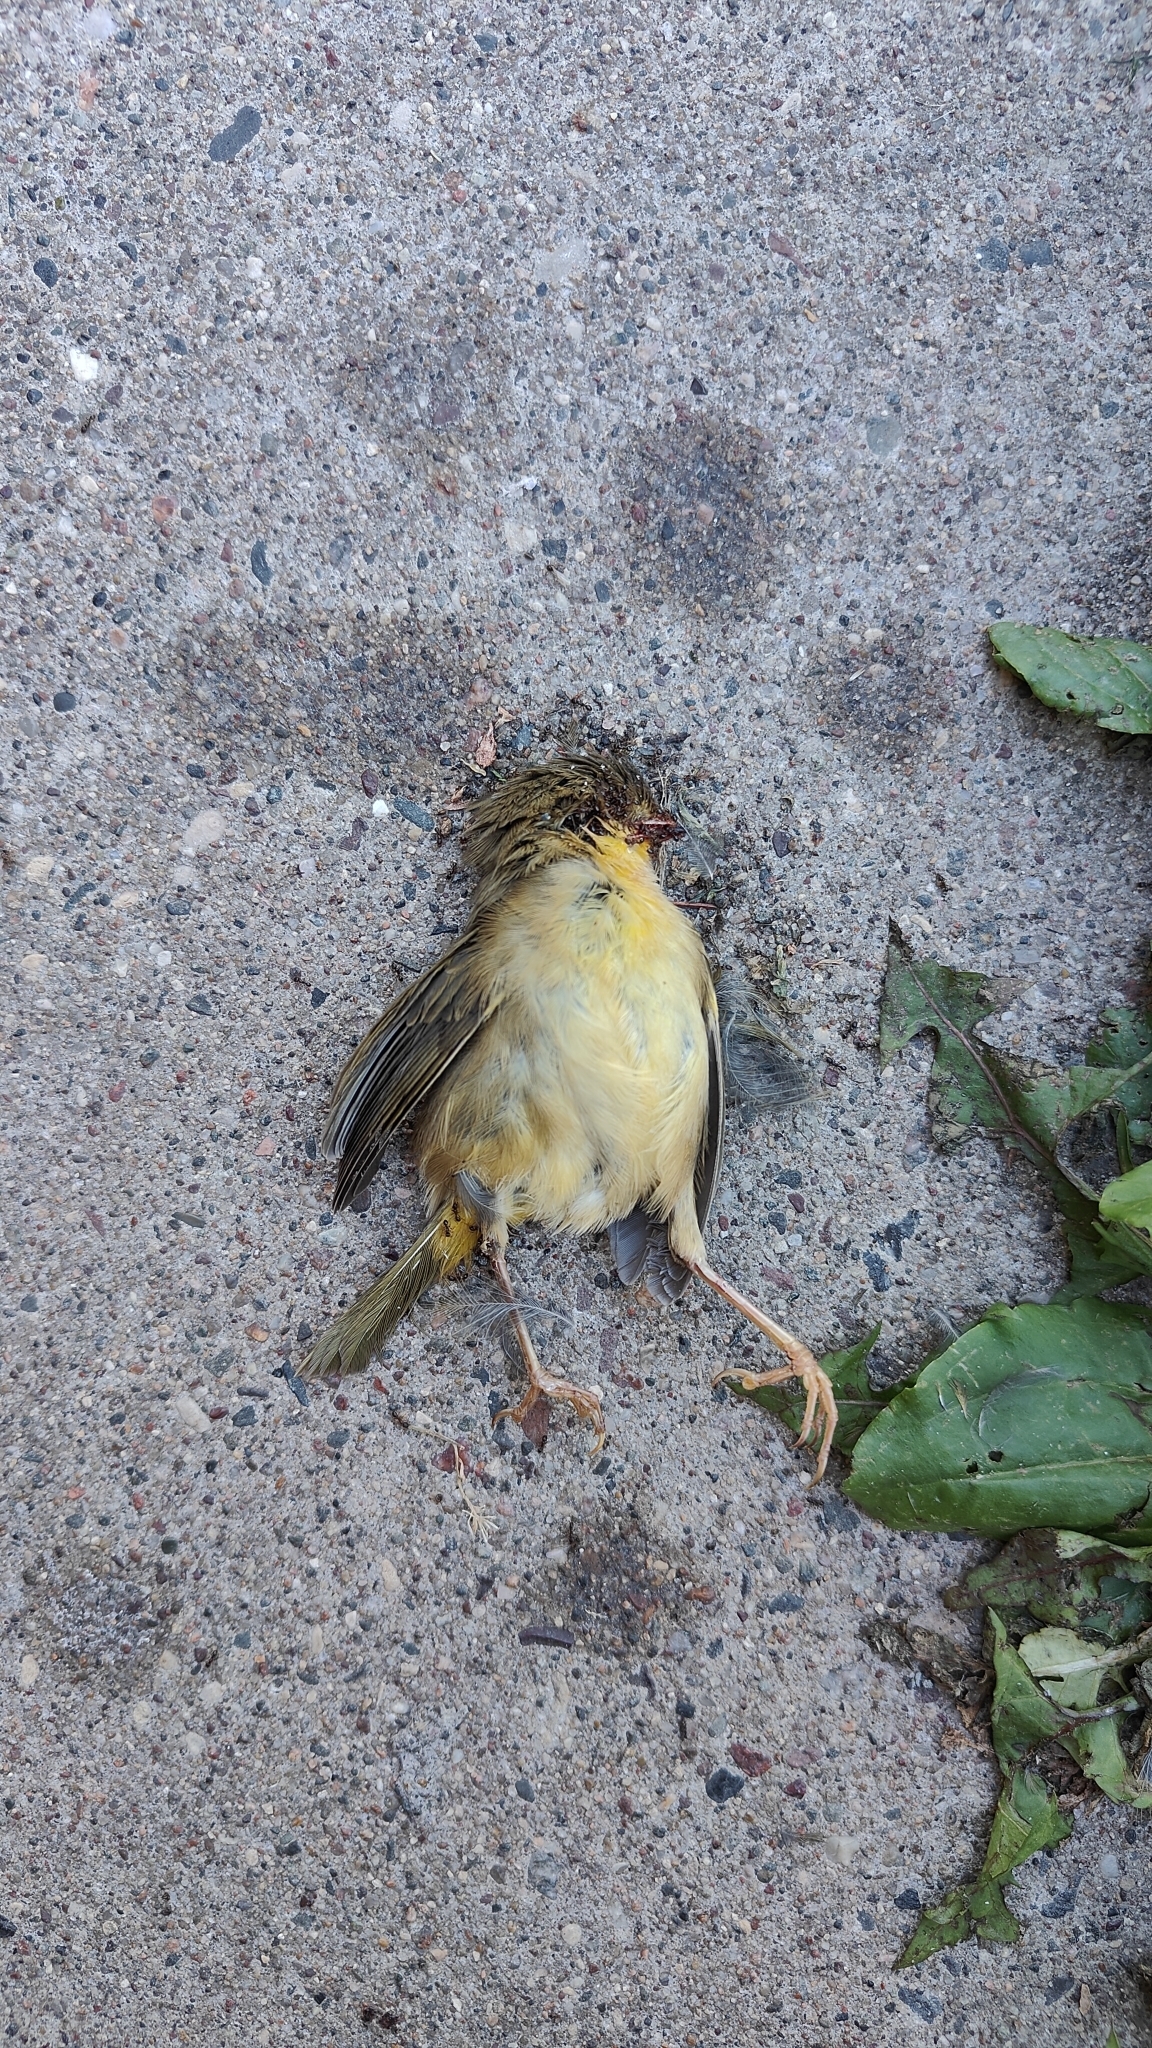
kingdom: Animalia
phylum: Chordata
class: Aves
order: Passeriformes
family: Parulidae
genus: Geothlypis
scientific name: Geothlypis trichas
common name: Common yellowthroat
